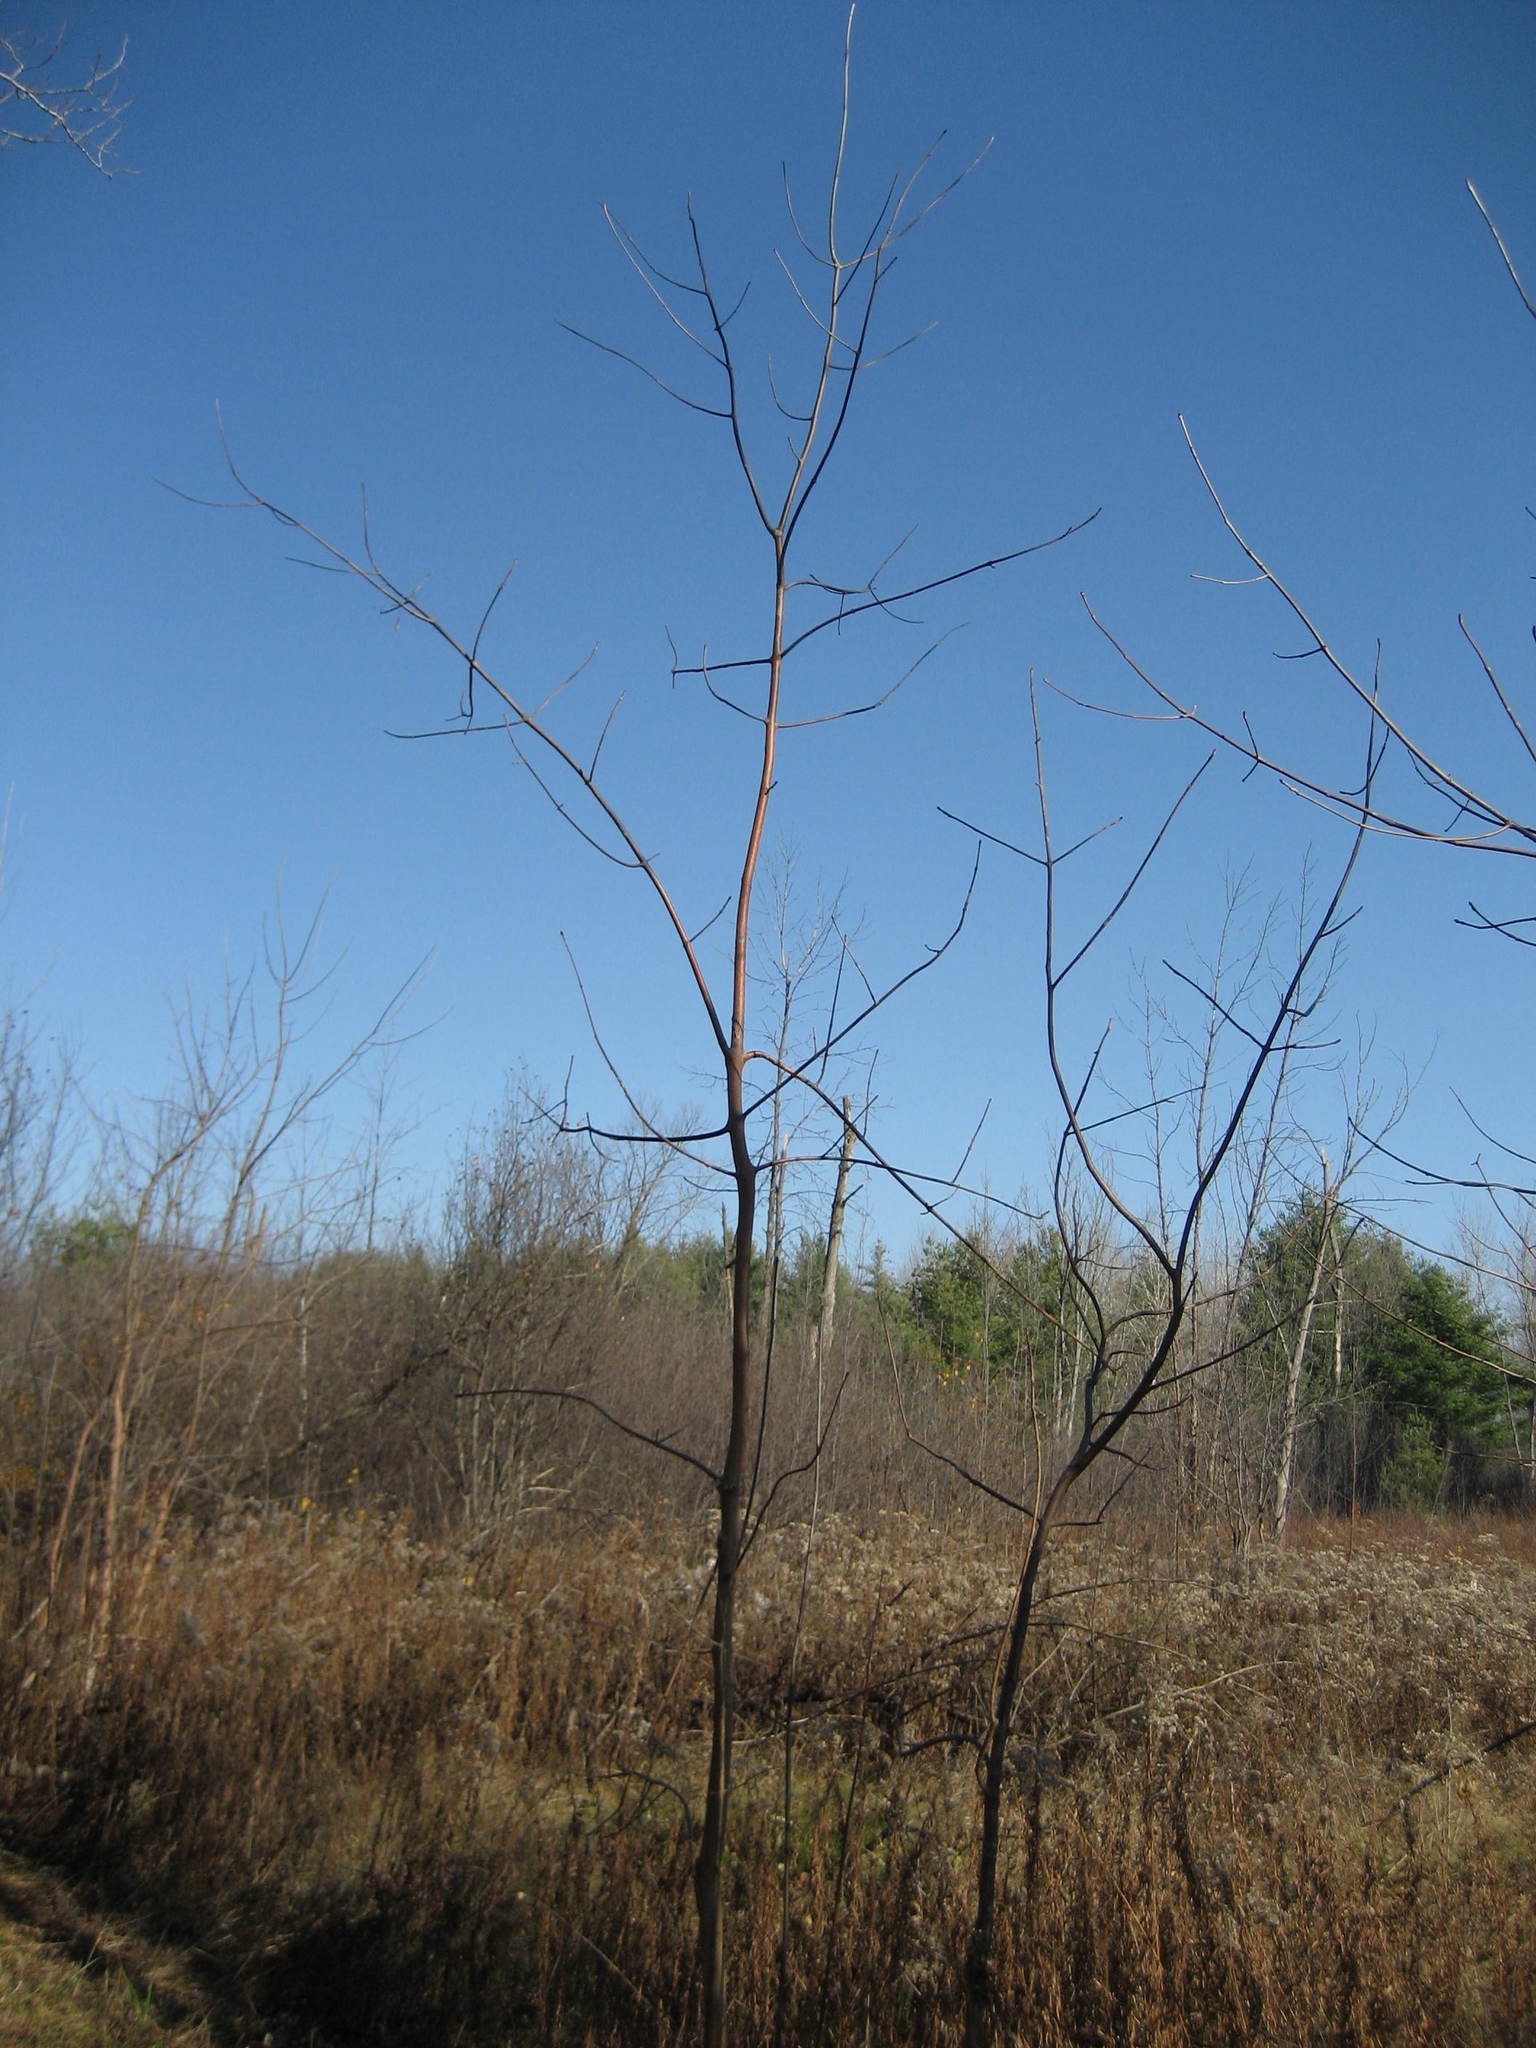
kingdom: Plantae
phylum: Tracheophyta
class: Magnoliopsida
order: Lamiales
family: Oleaceae
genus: Fraxinus
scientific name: Fraxinus pennsylvanica
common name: Green ash
